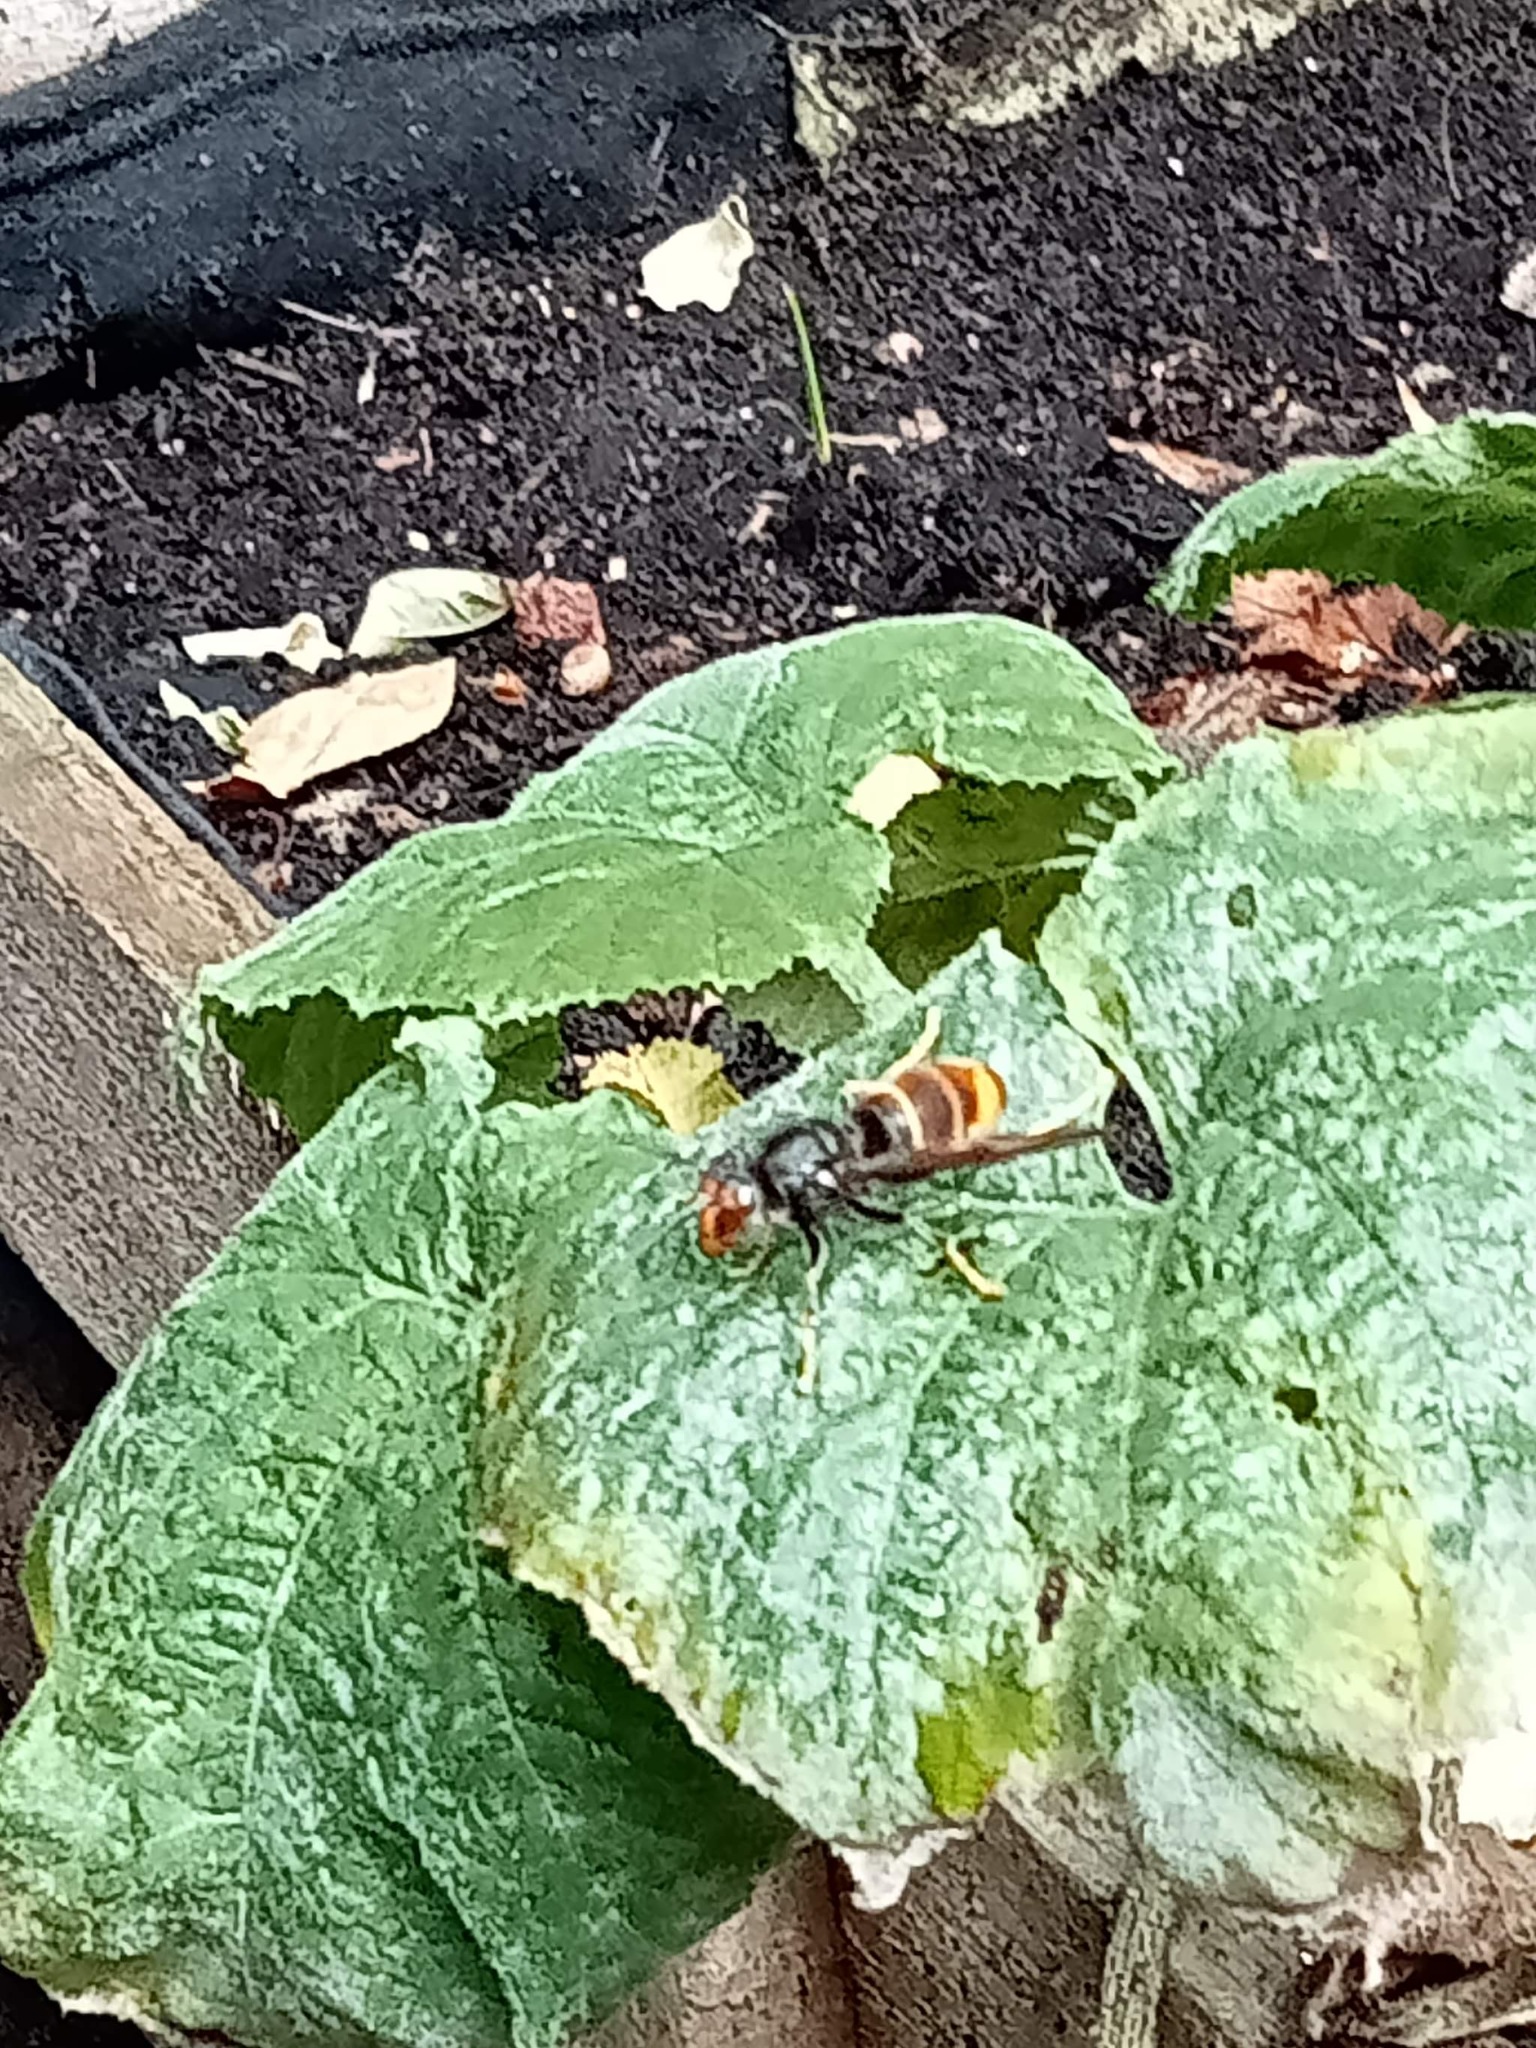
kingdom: Animalia
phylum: Arthropoda
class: Insecta
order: Hymenoptera
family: Vespidae
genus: Vespa
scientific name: Vespa velutina
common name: Asian hornet
